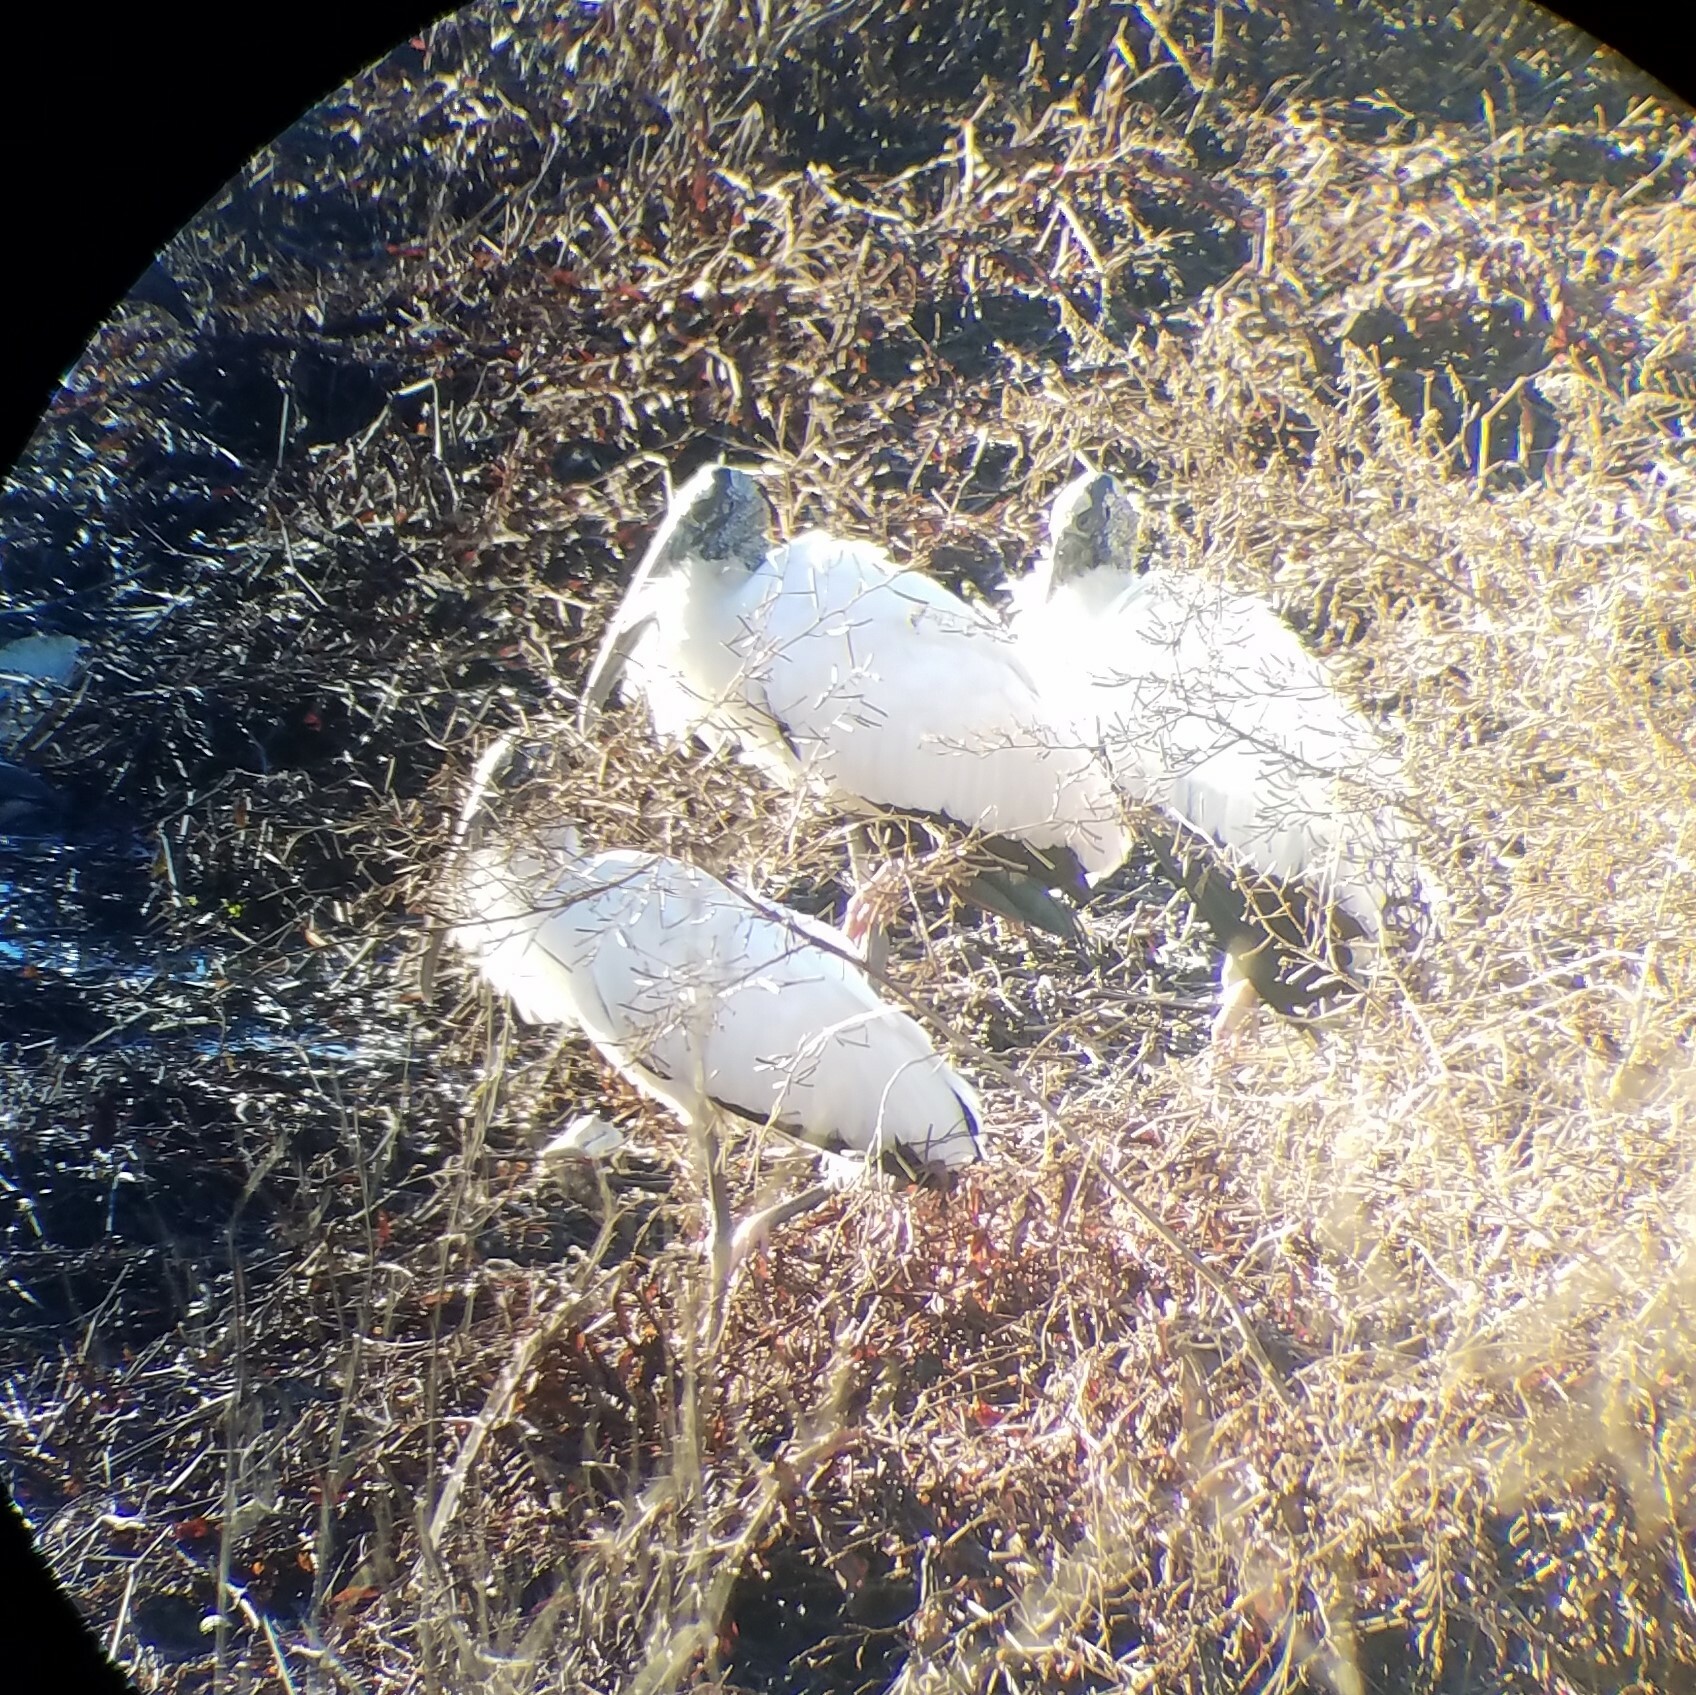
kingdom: Animalia
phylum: Chordata
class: Aves
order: Ciconiiformes
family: Ciconiidae
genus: Mycteria
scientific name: Mycteria americana
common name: Wood stork
